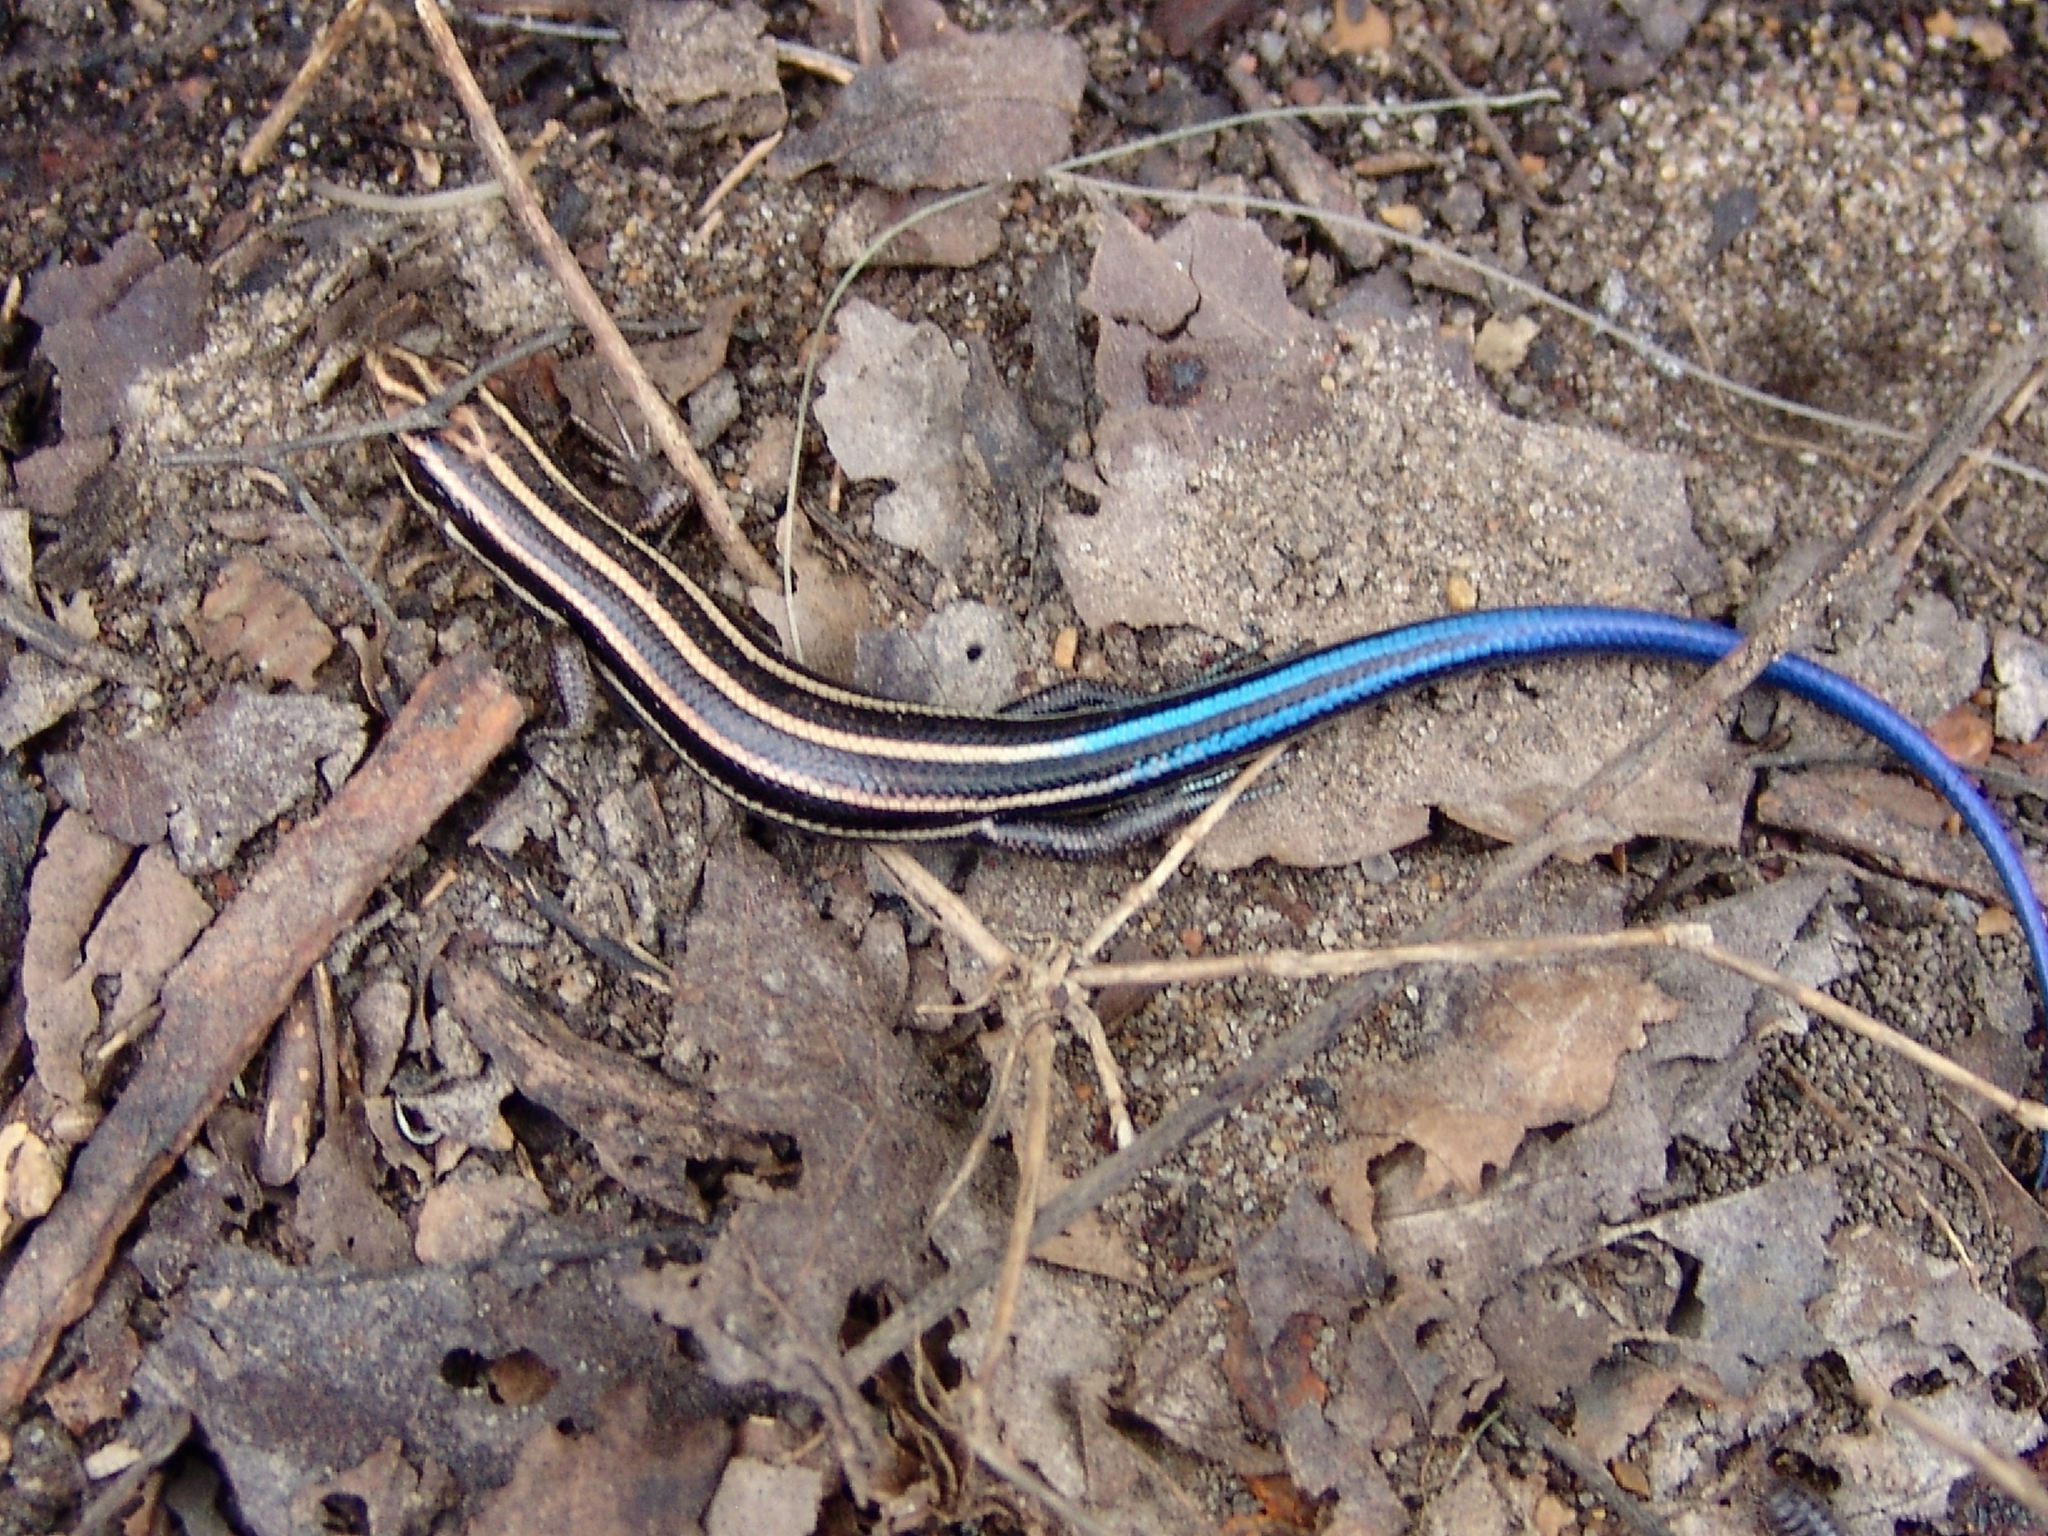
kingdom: Animalia
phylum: Chordata
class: Squamata
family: Scincidae
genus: Plestiodon
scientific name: Plestiodon
